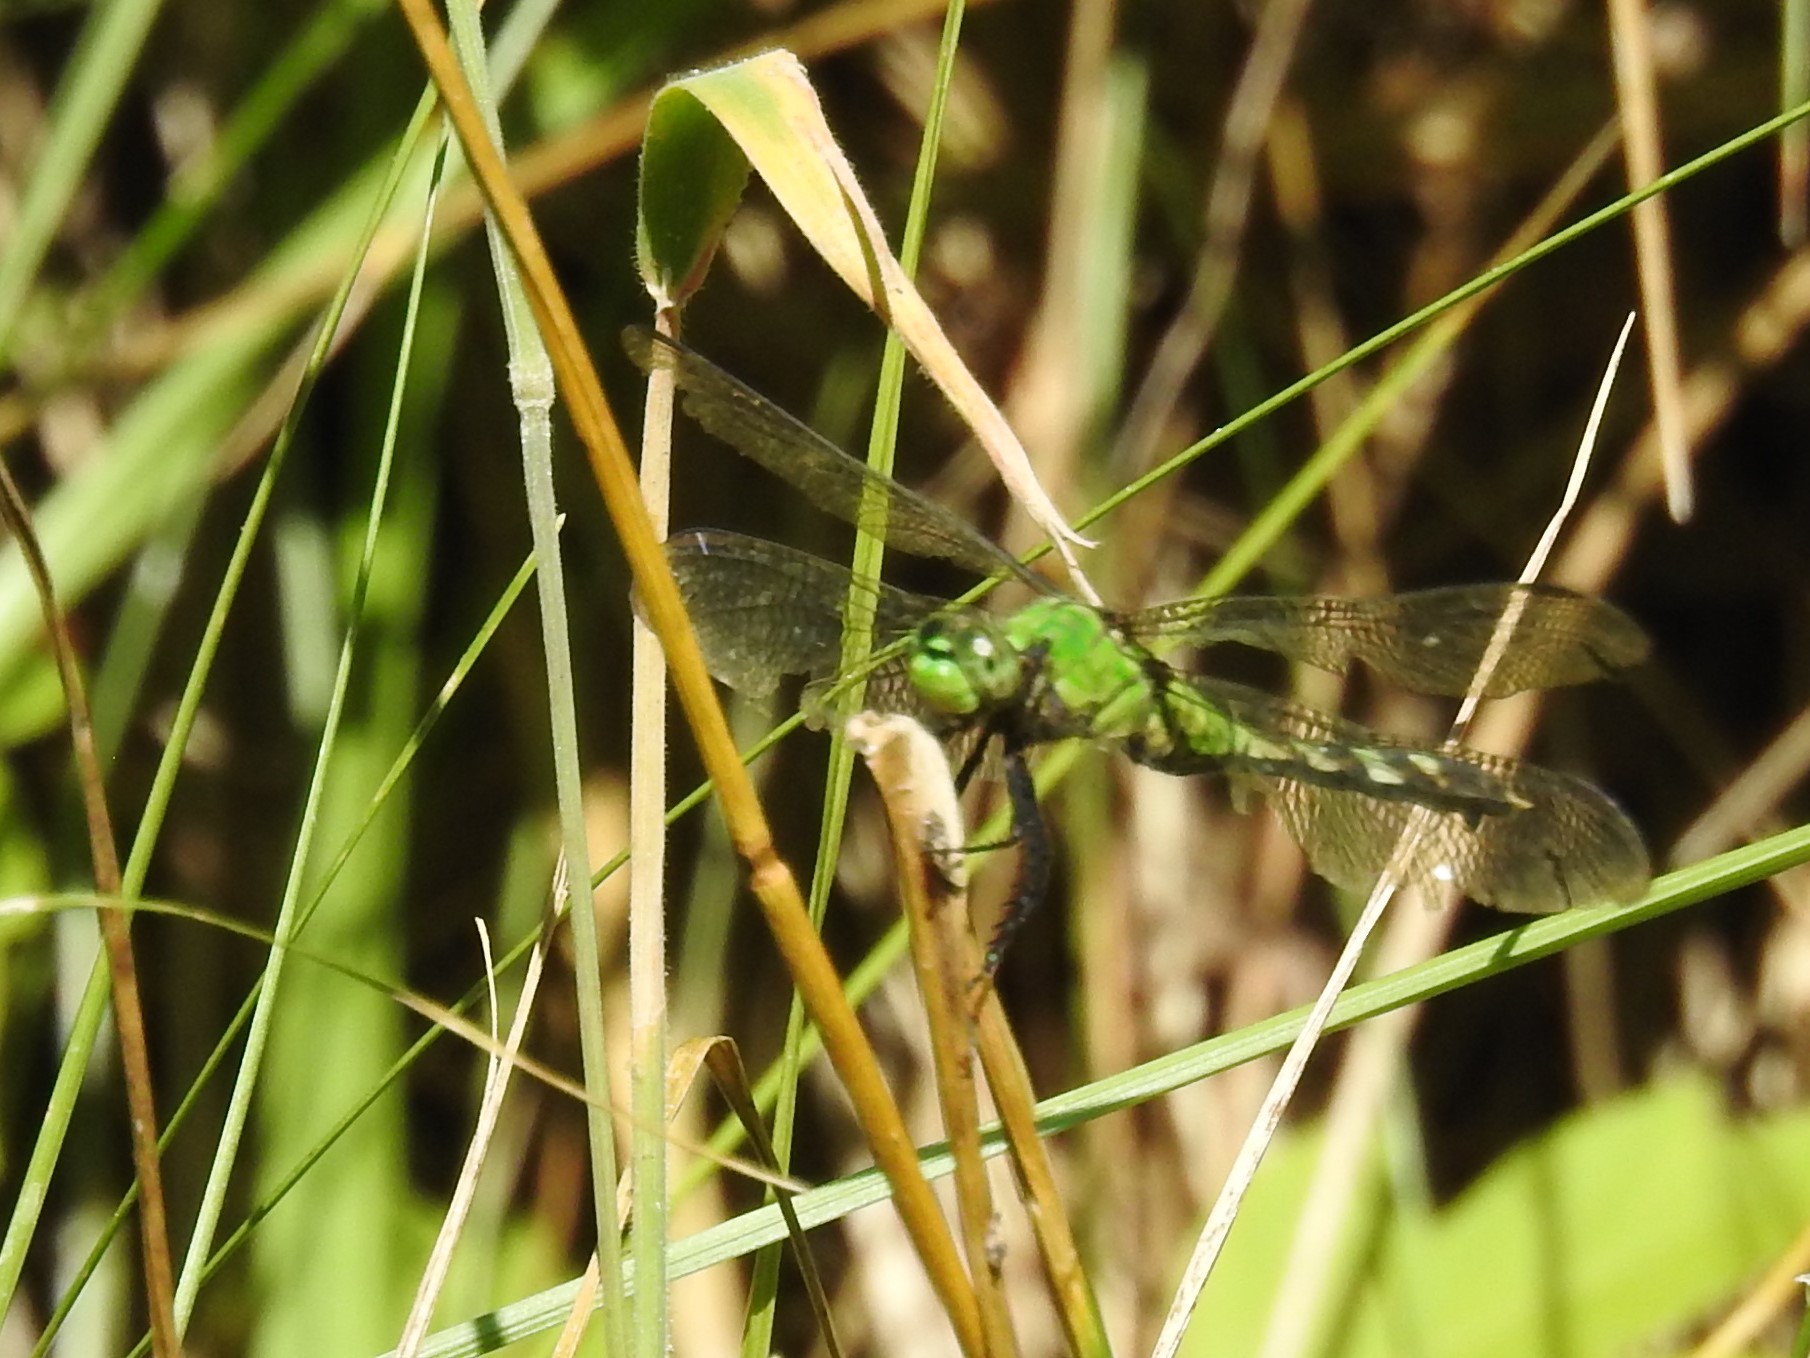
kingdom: Animalia
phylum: Arthropoda
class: Insecta
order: Odonata
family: Libellulidae
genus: Erythemis
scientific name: Erythemis simplicicollis
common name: Eastern pondhawk
